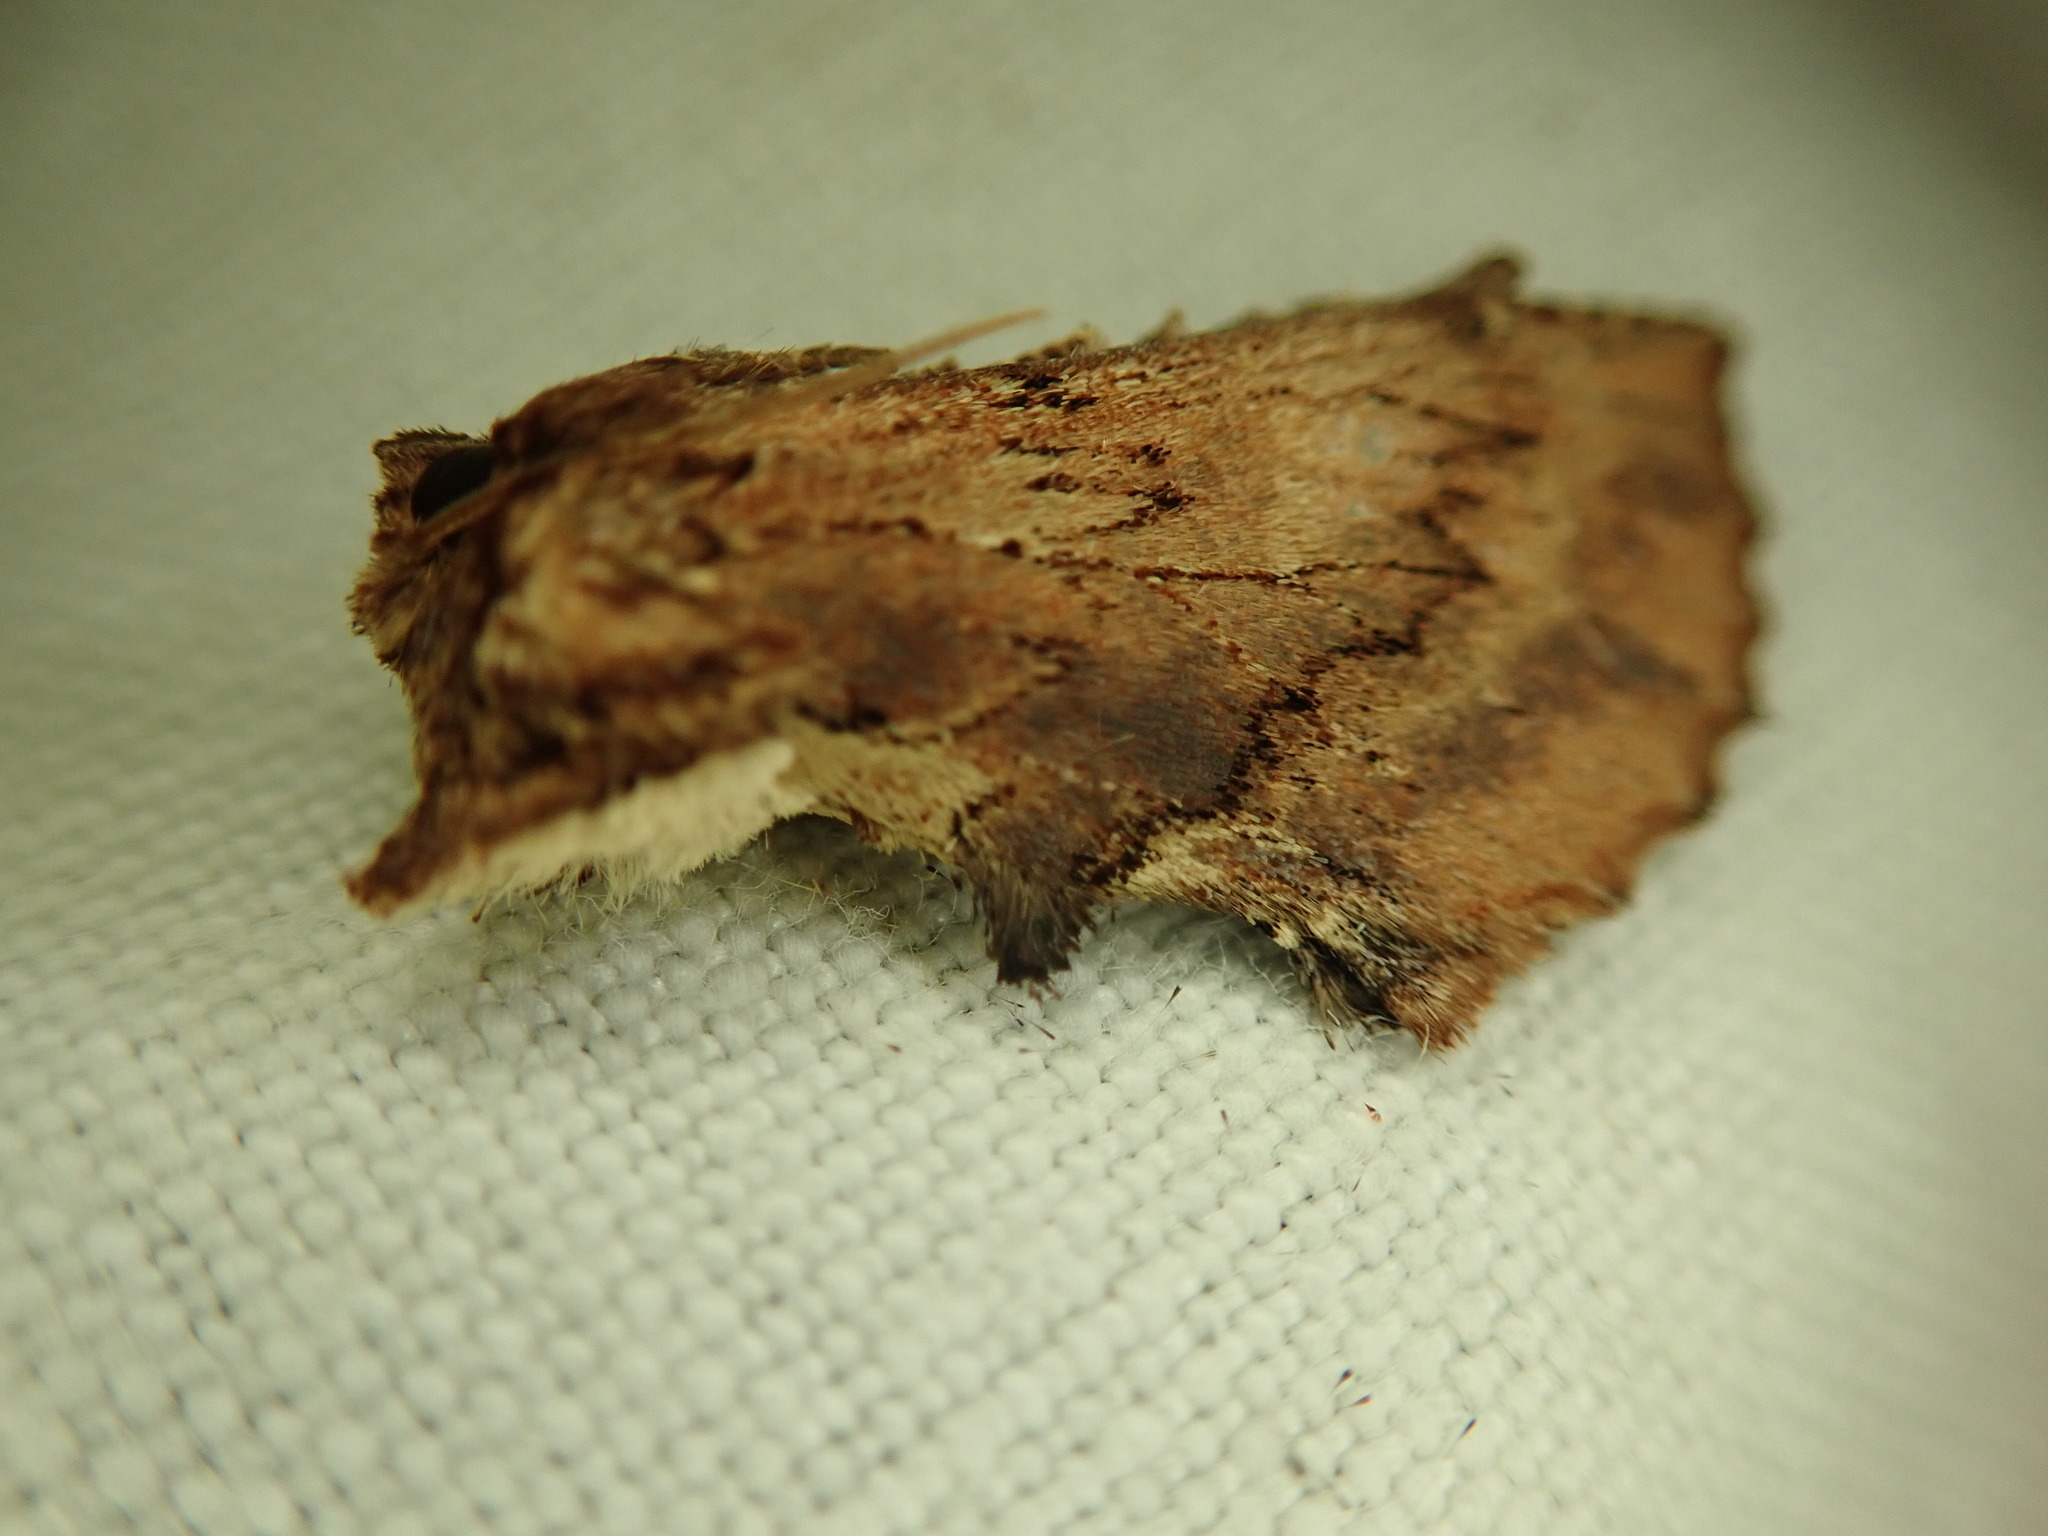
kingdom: Animalia
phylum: Arthropoda
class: Insecta
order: Lepidoptera
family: Notodontidae
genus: Ptilodon
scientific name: Ptilodon capucina
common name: Coxcomb prominent
